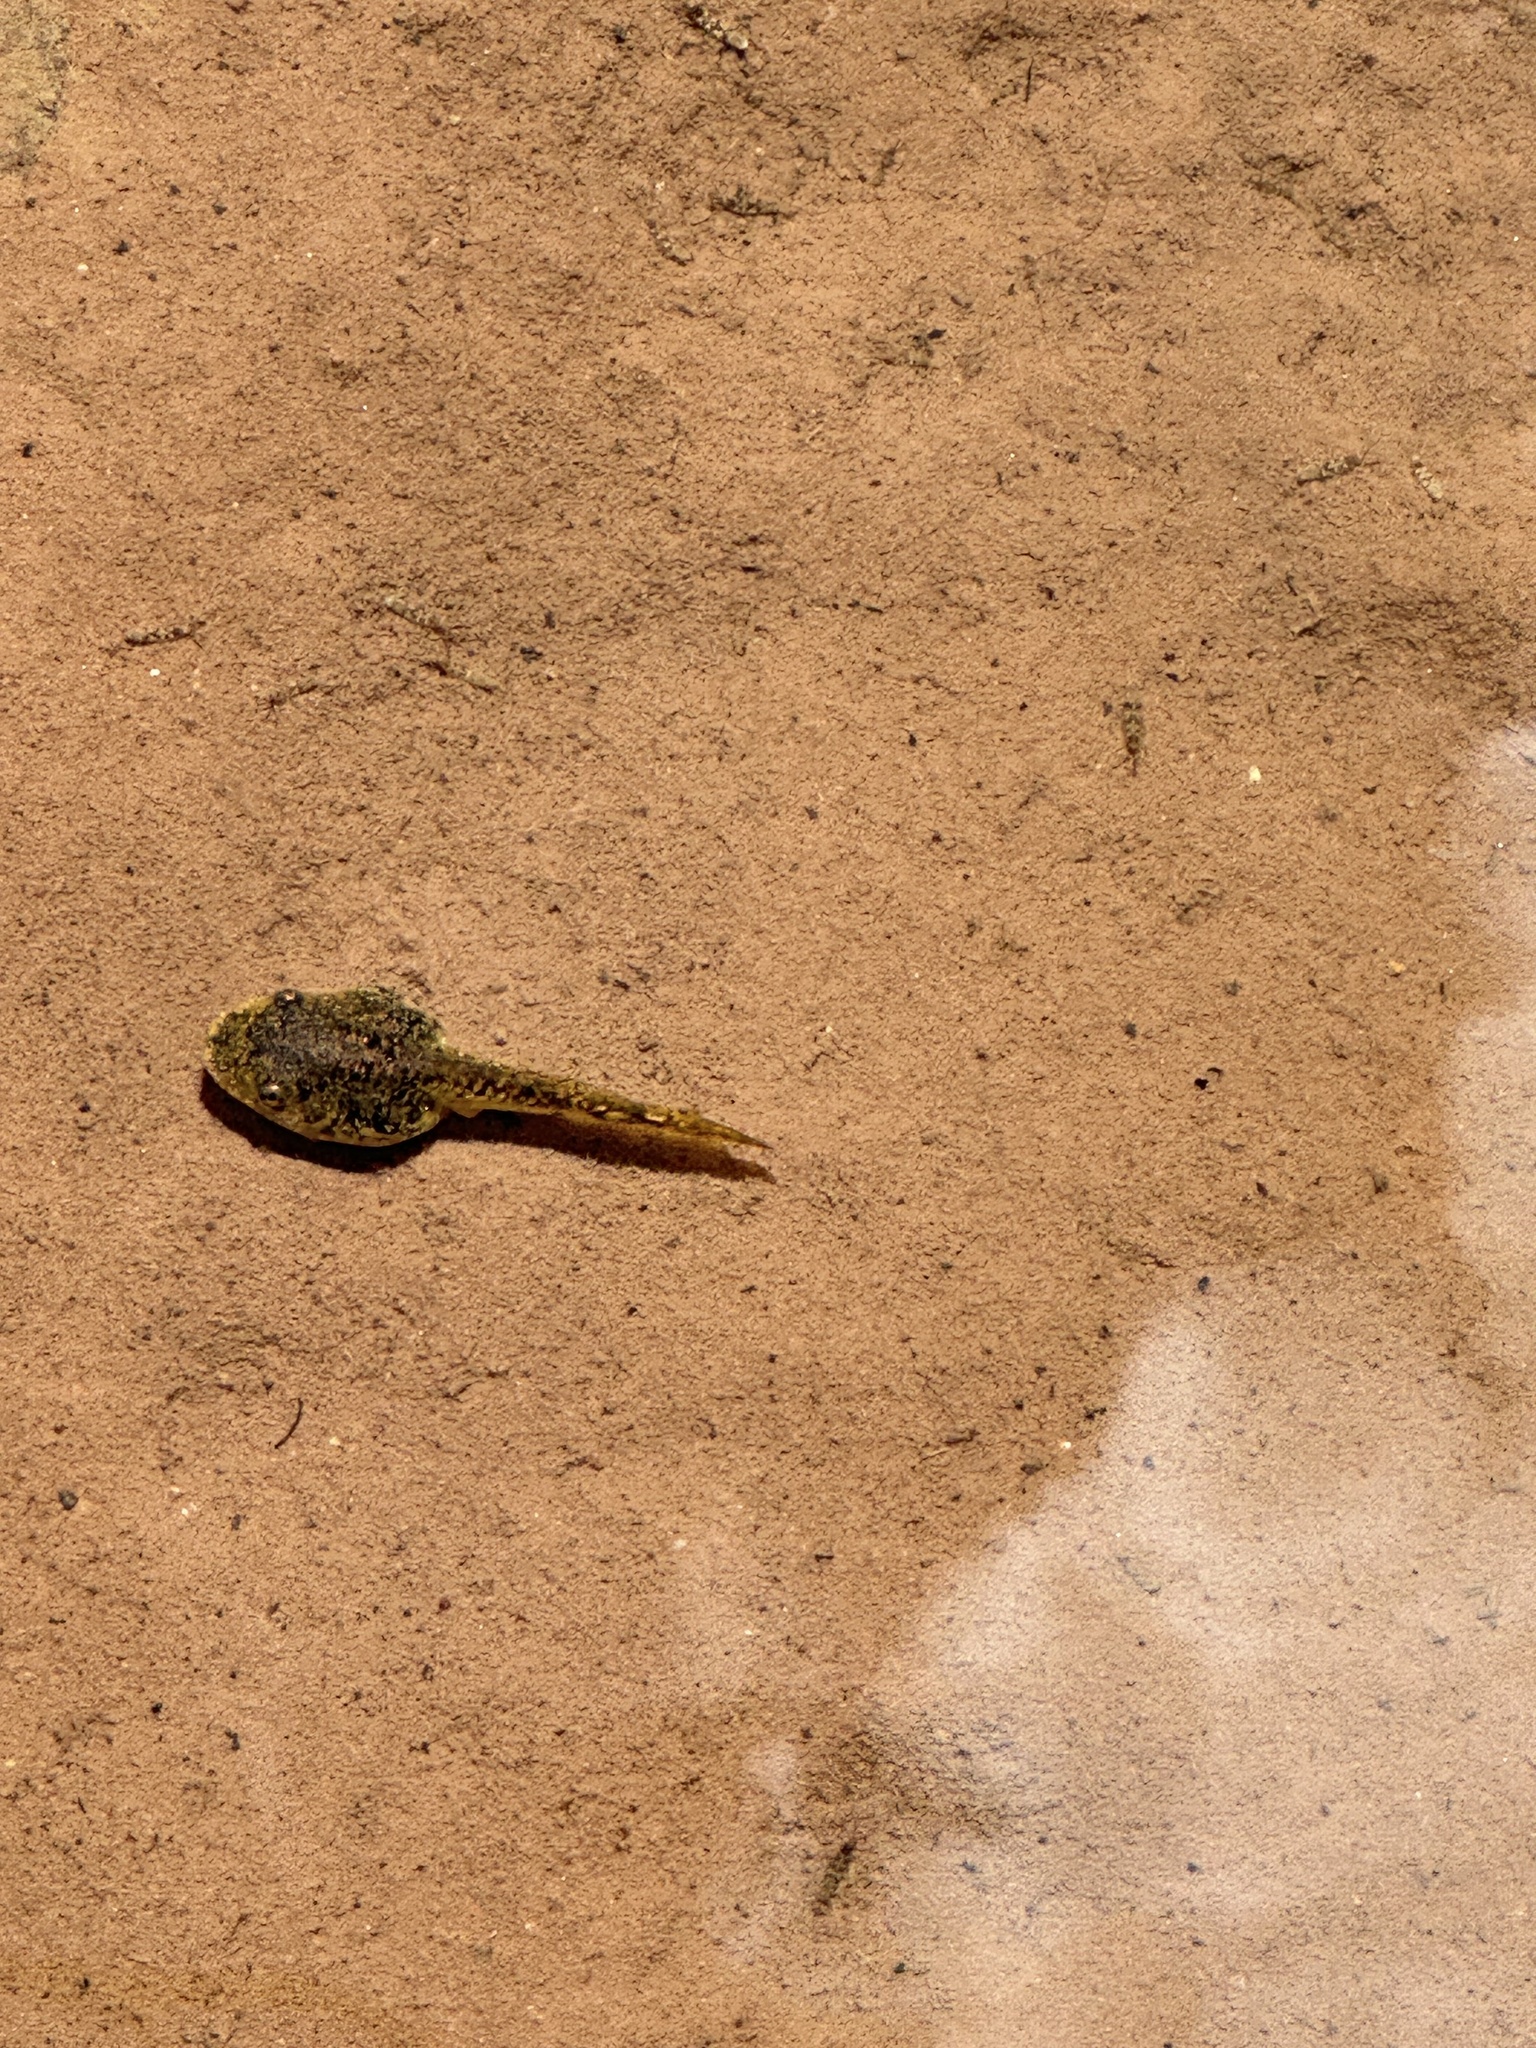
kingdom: Animalia
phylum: Chordata
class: Amphibia
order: Anura
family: Hylidae
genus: Dryophytes
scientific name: Dryophytes arenicolor
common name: Canyon treefrog
